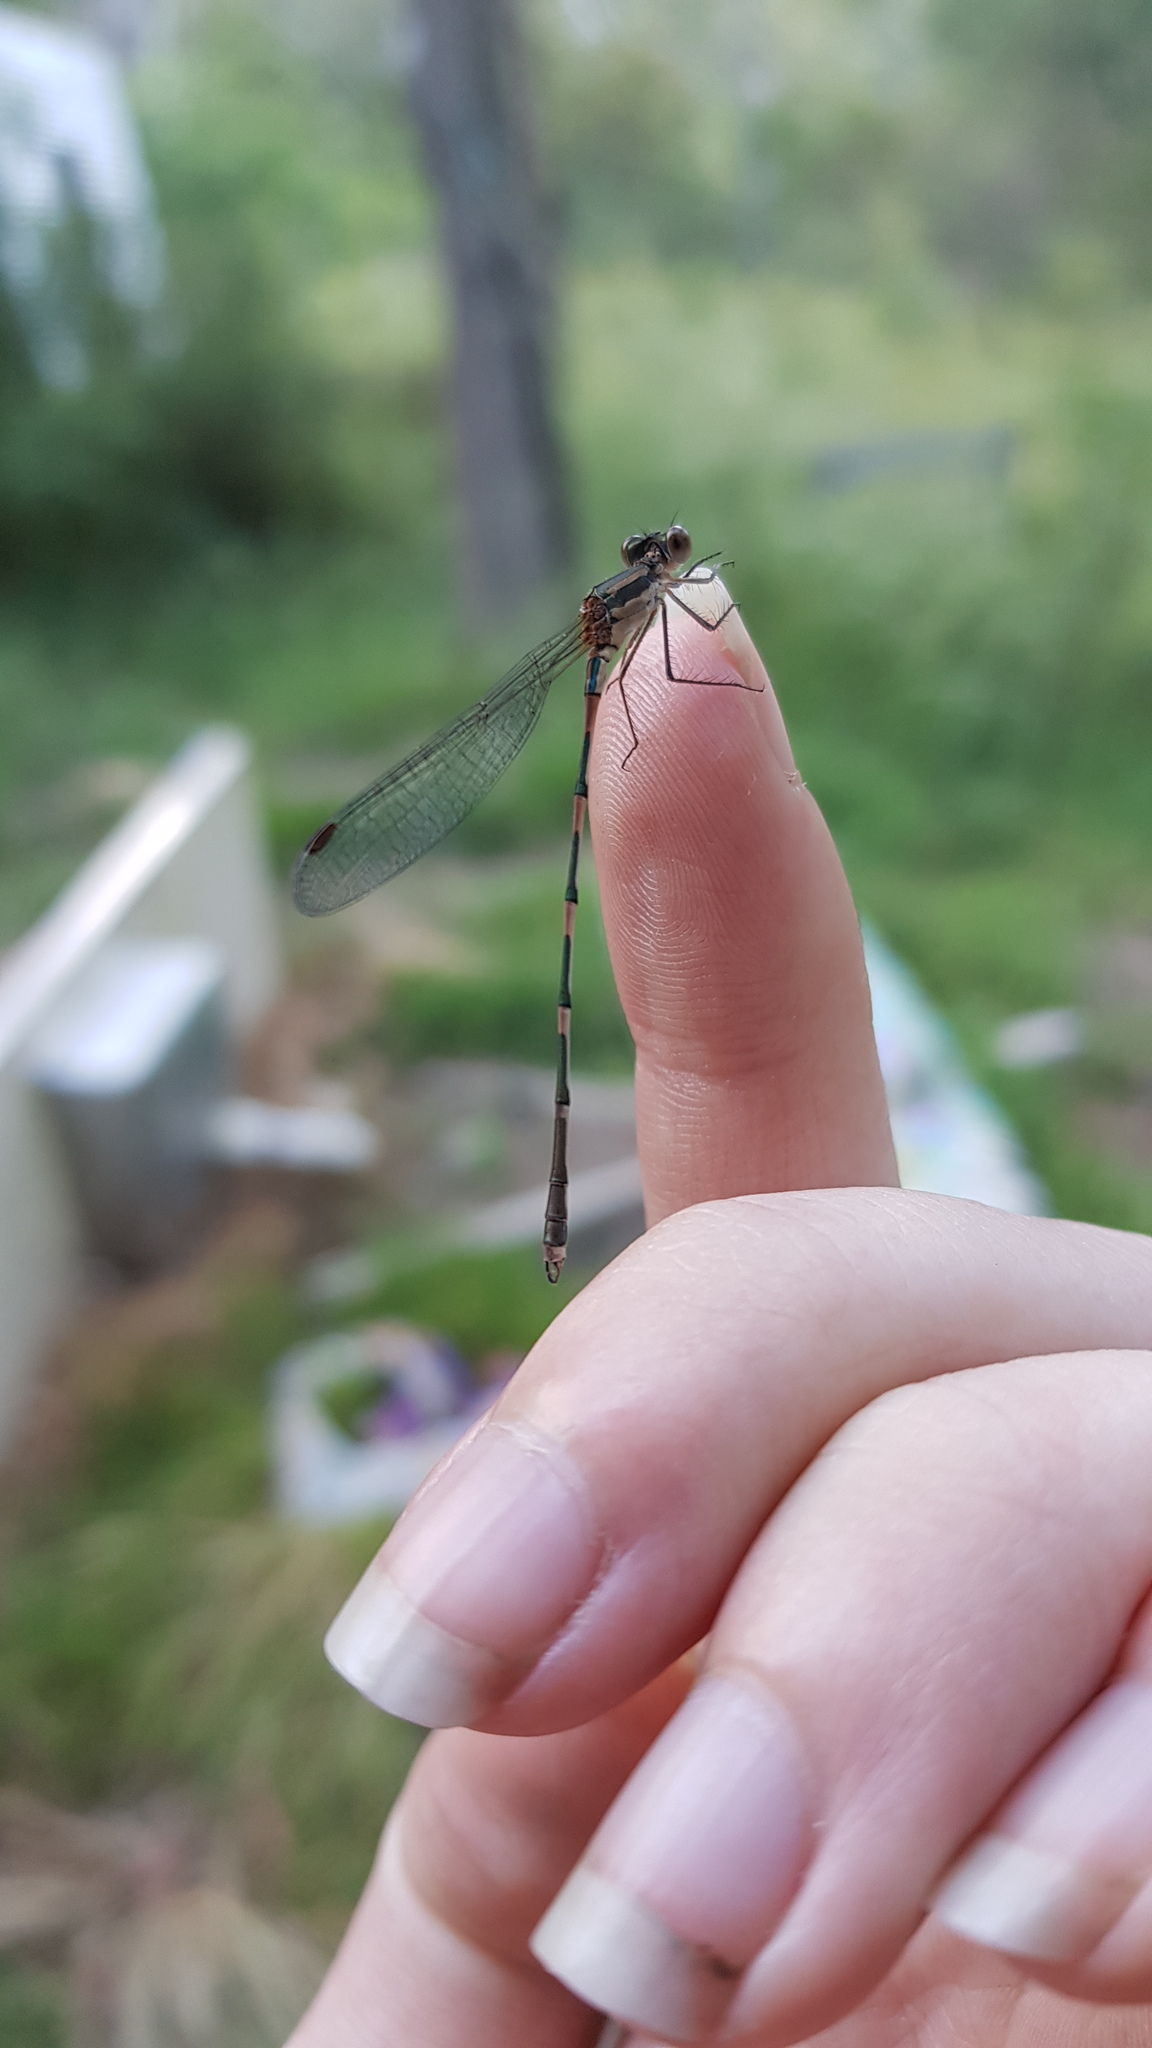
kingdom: Animalia
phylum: Arthropoda
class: Insecta
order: Odonata
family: Lestidae
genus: Austrolestes
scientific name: Austrolestes leda
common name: Wandering ringtail
